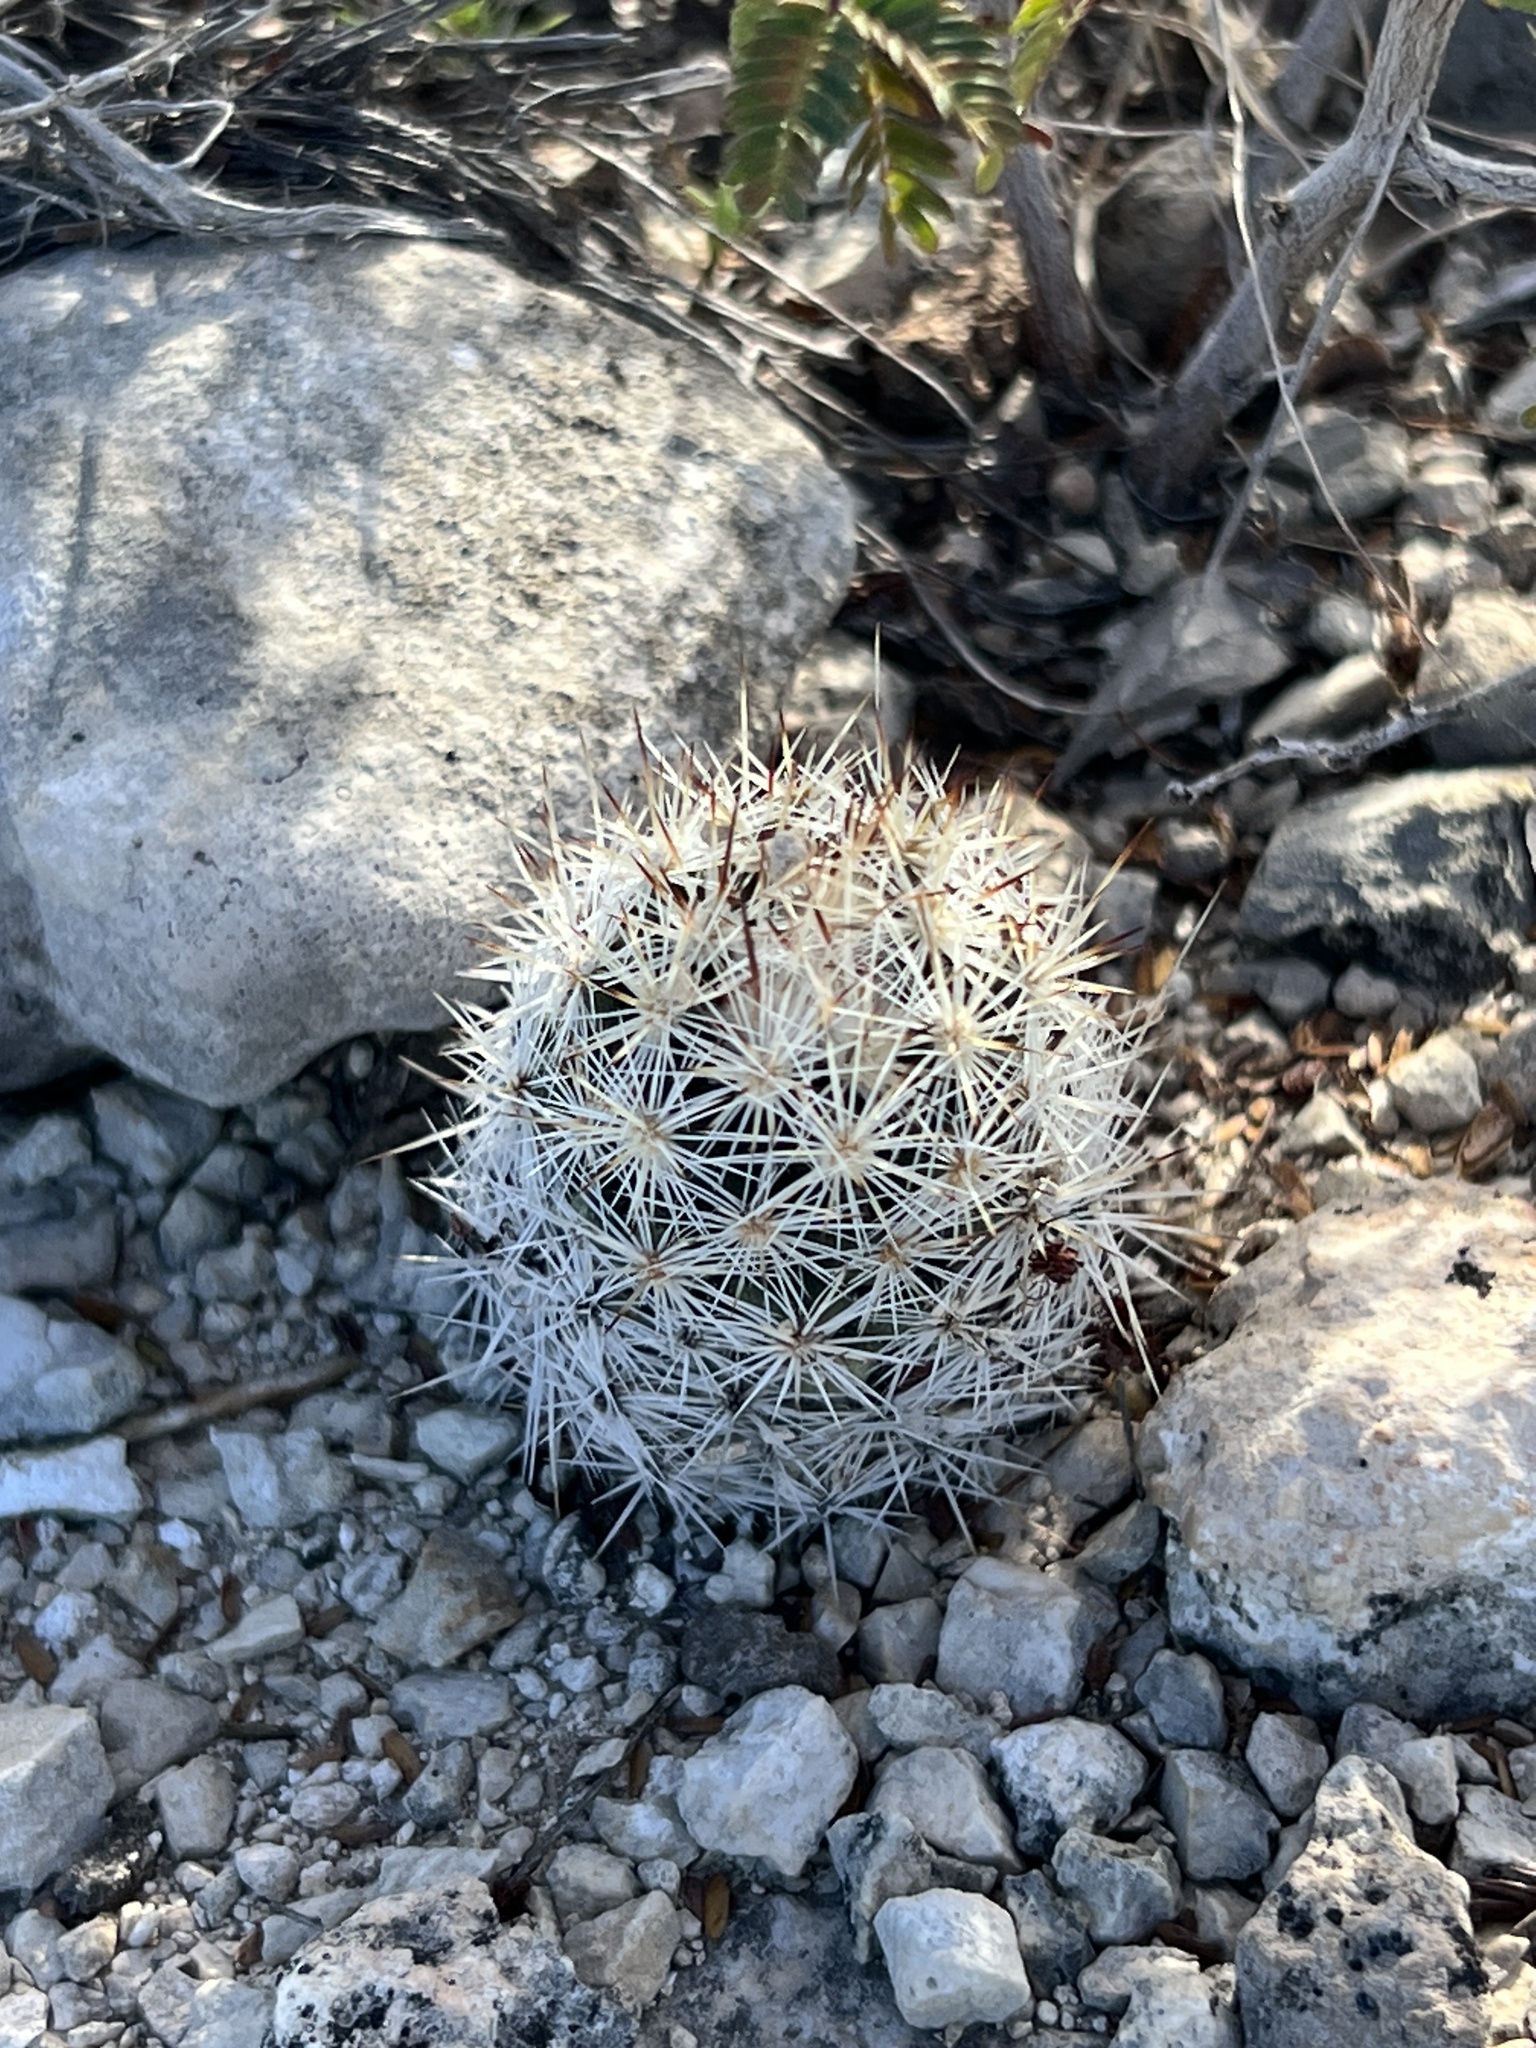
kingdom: Plantae
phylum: Tracheophyta
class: Magnoliopsida
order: Caryophyllales
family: Cactaceae
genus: Pelecyphora
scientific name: Pelecyphora emskoetteriana
